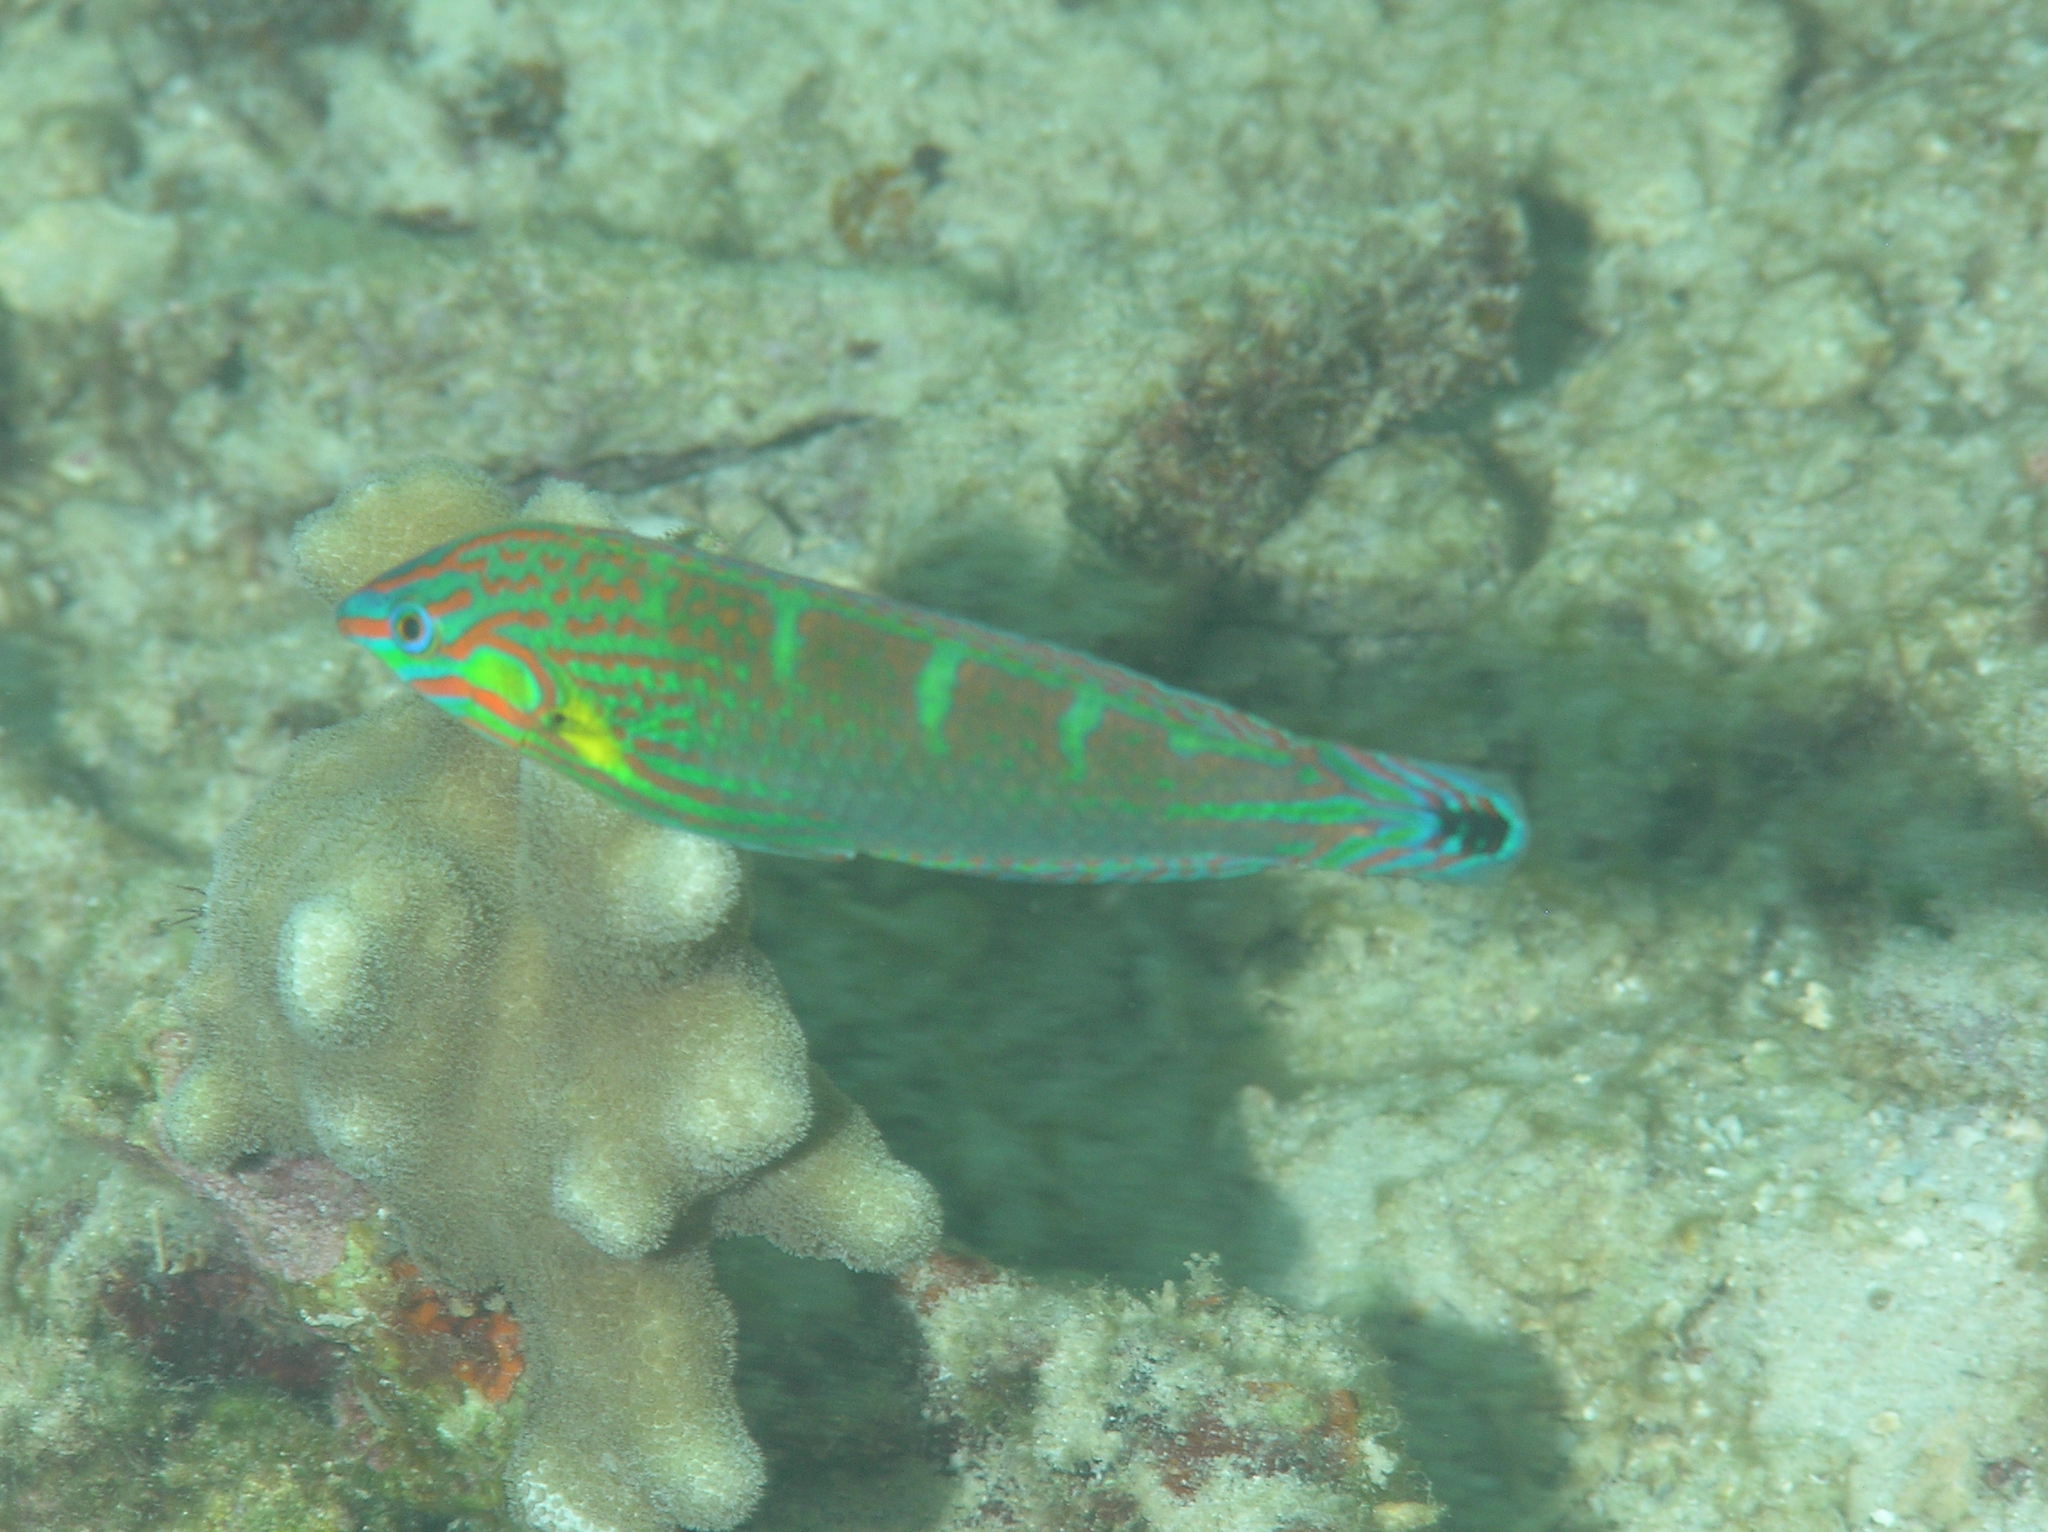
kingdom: Animalia
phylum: Chordata
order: Perciformes
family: Labridae
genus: Halichoeres
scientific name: Halichoeres melanurus
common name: Hoeven's wrasse
